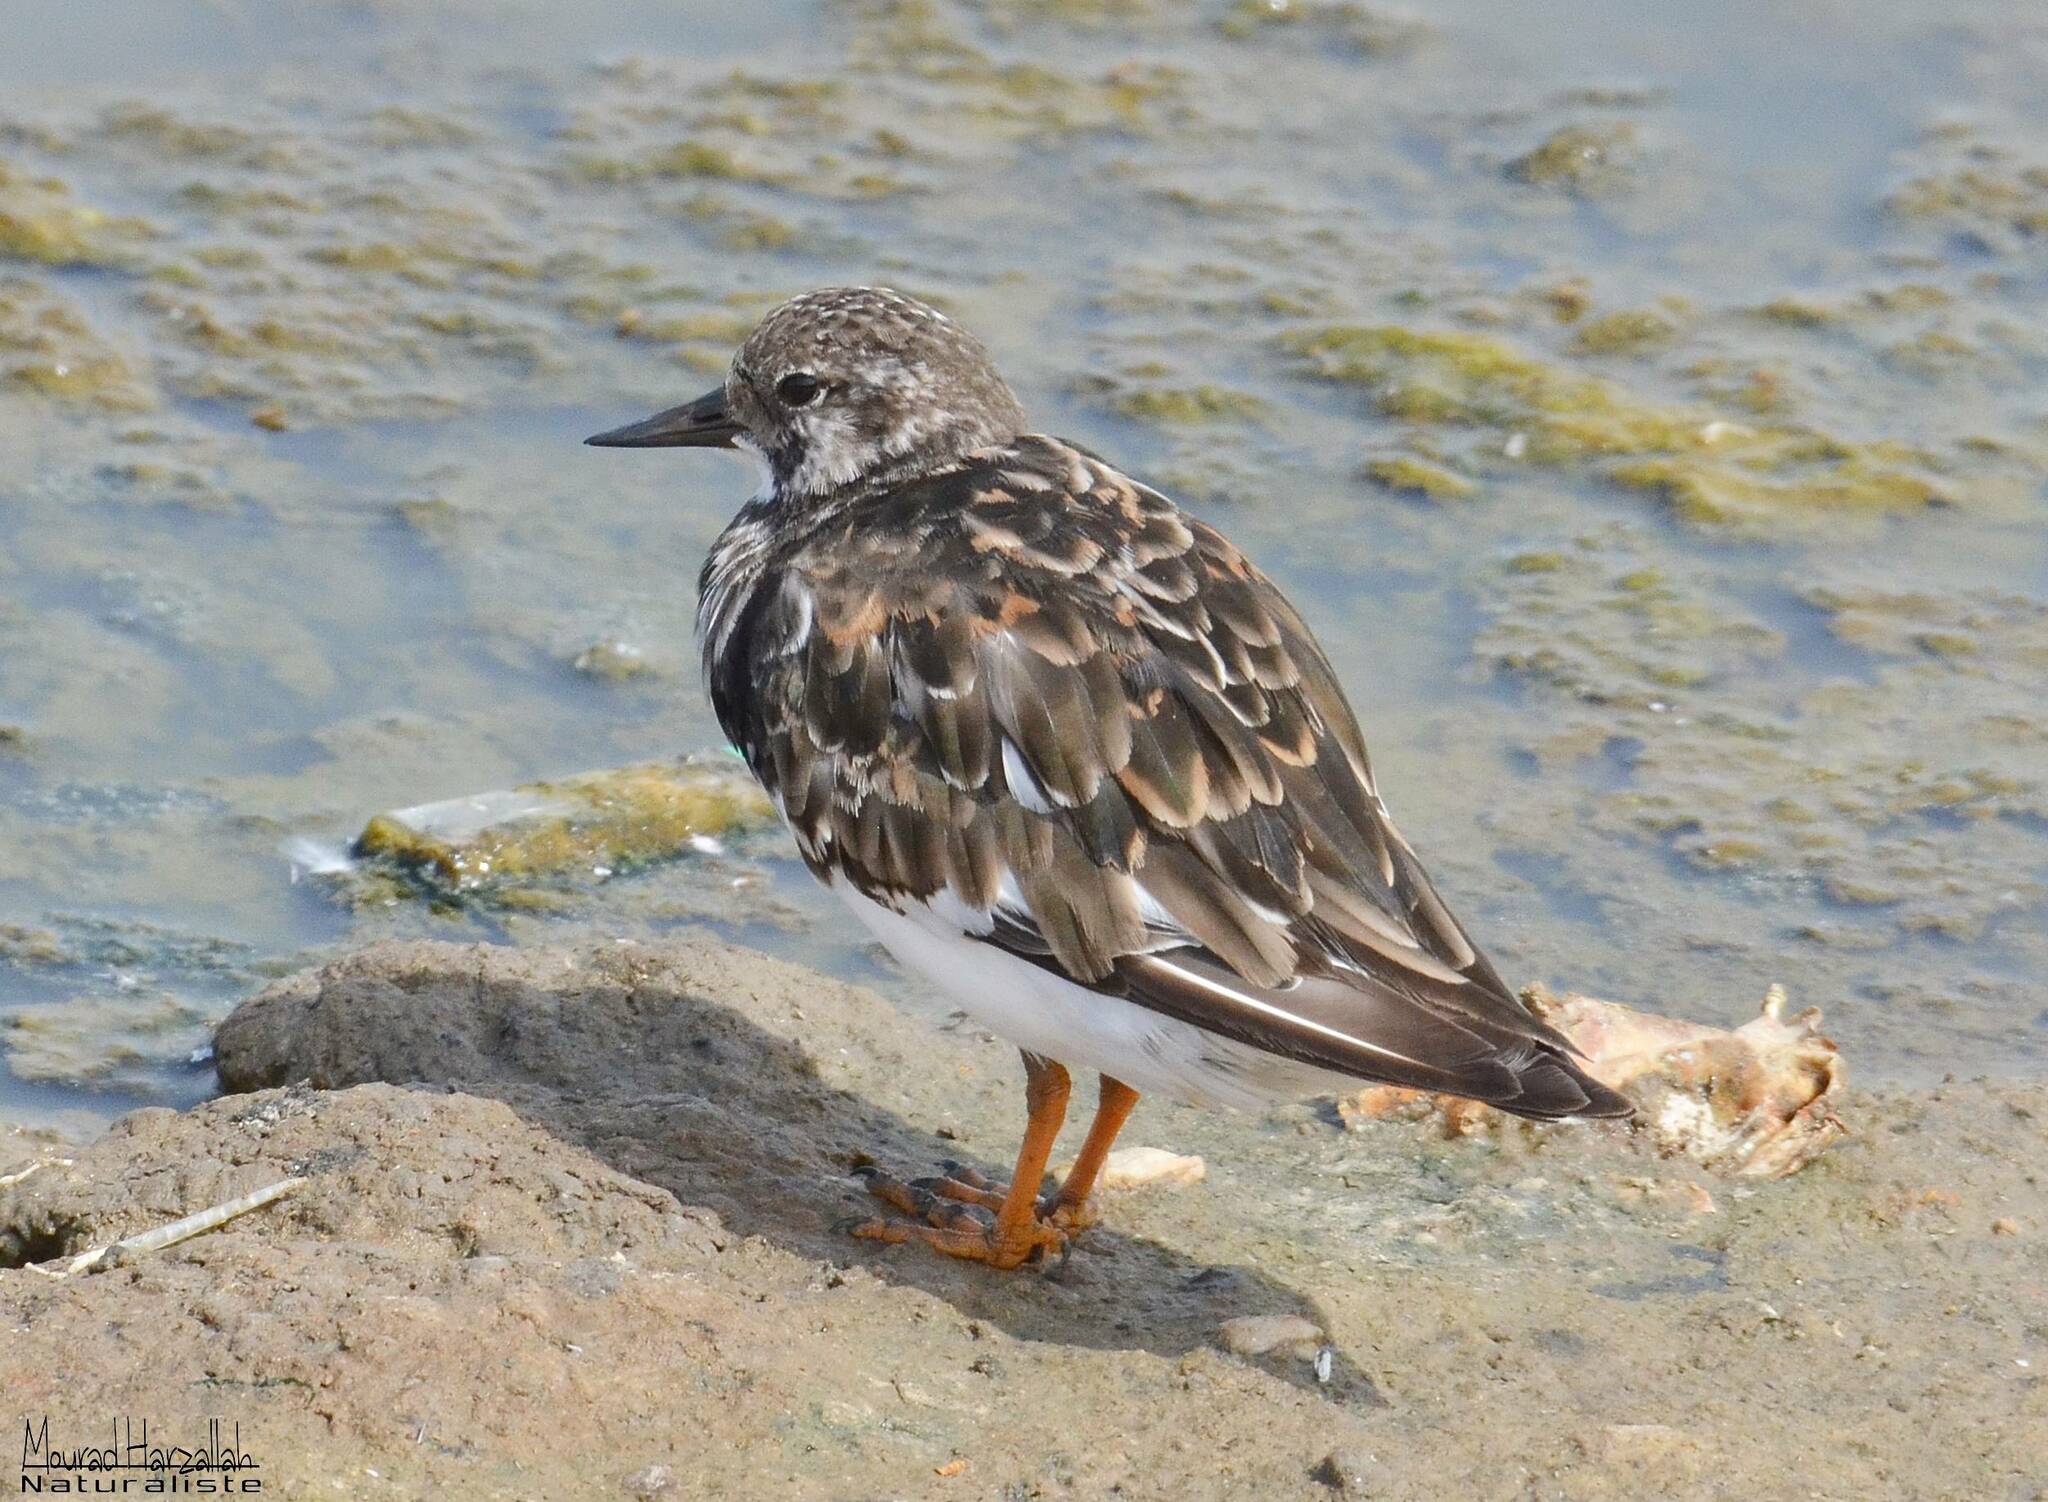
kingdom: Animalia
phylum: Chordata
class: Aves
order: Charadriiformes
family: Scolopacidae
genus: Arenaria
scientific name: Arenaria interpres
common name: Ruddy turnstone
